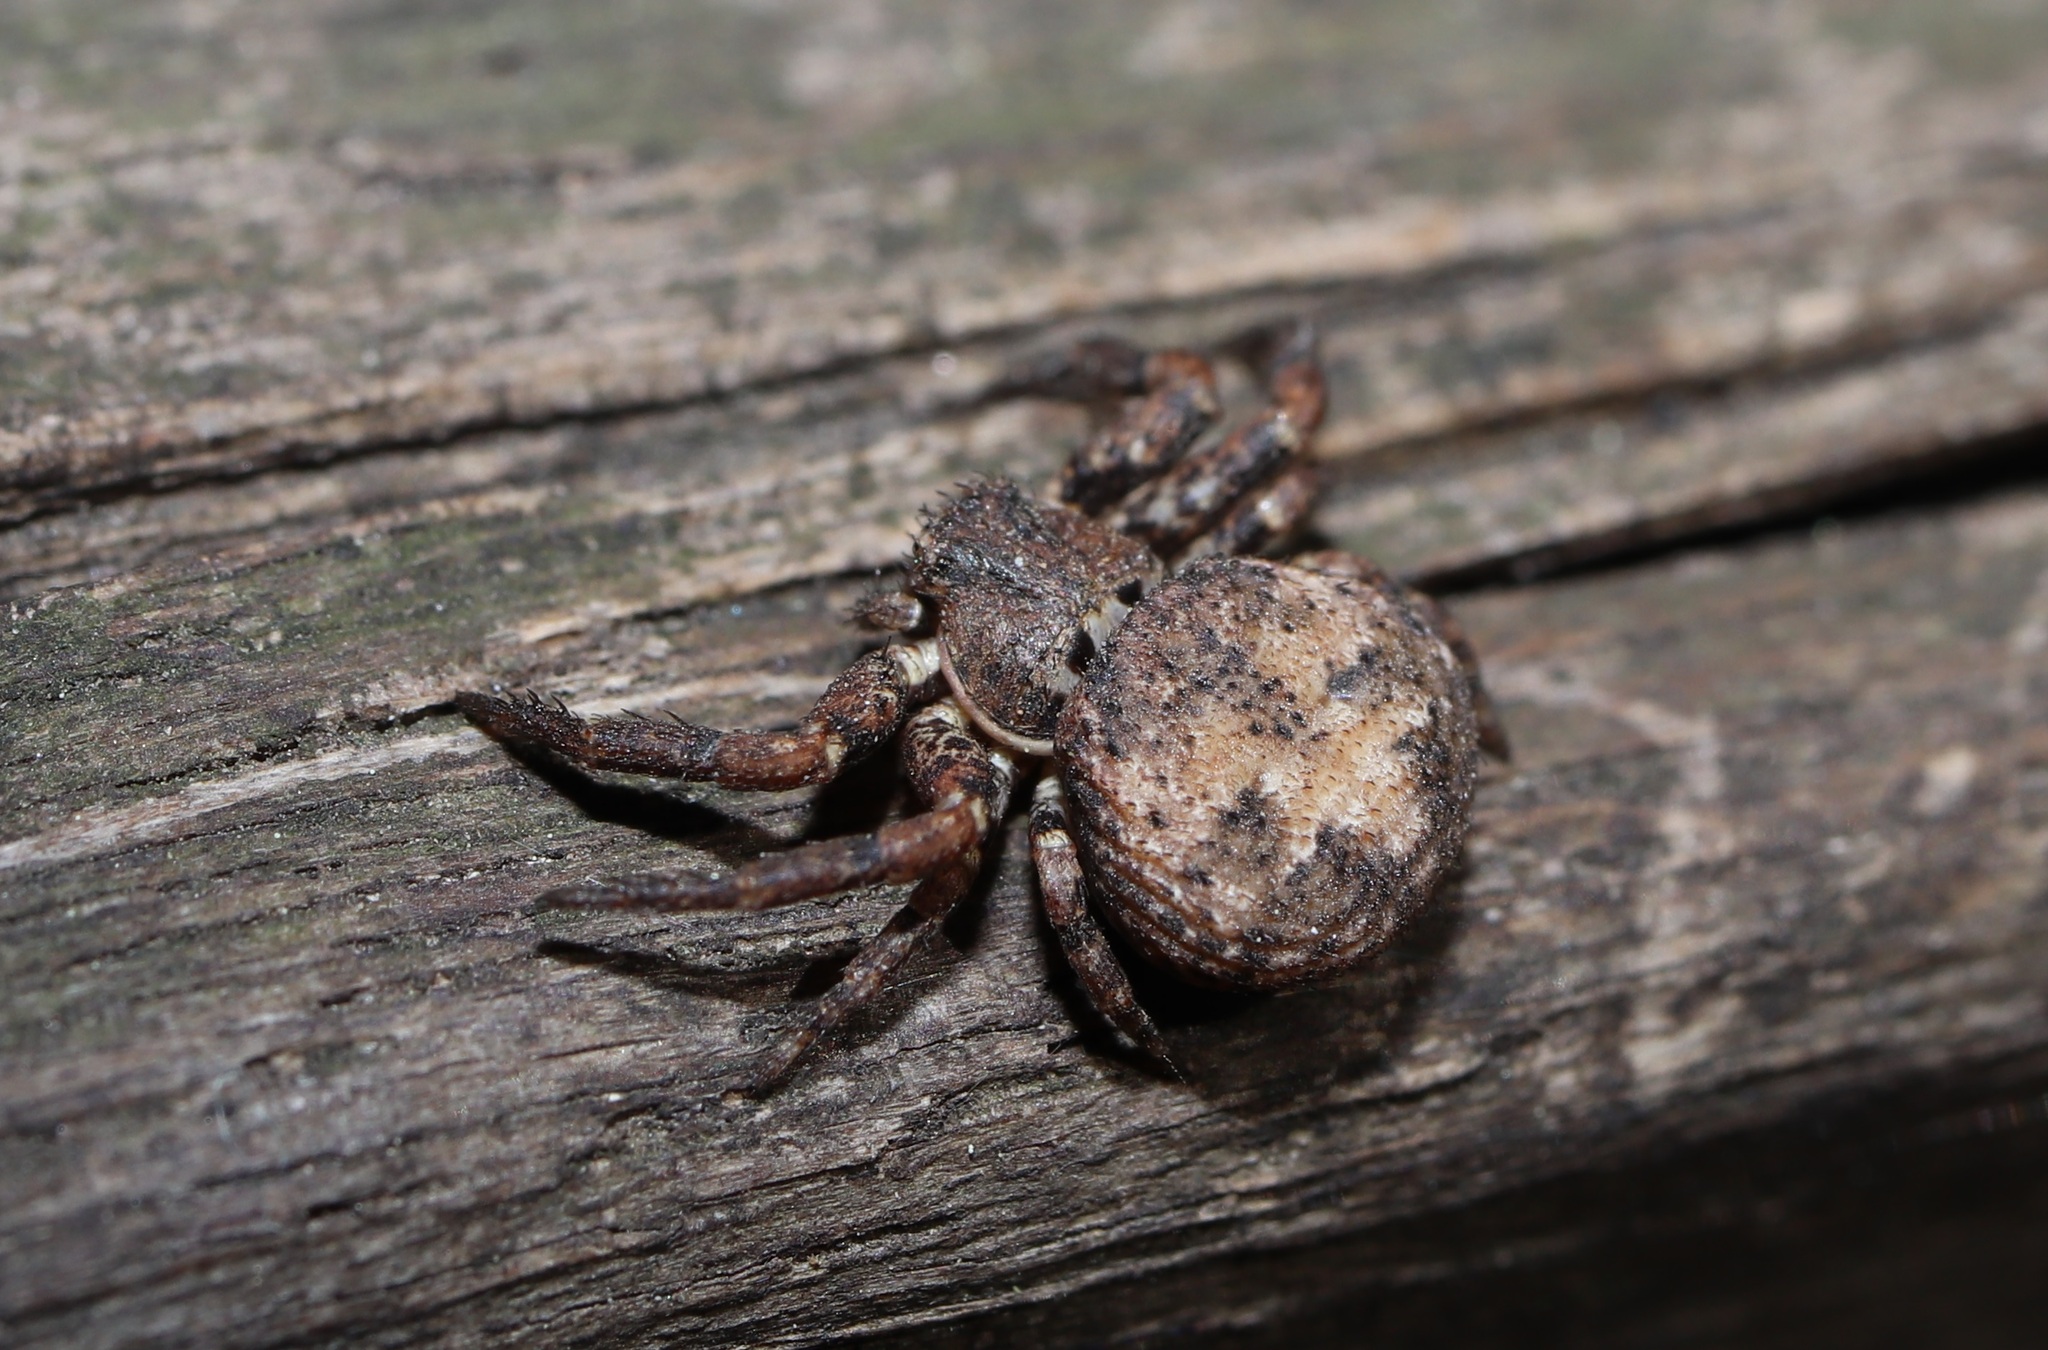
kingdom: Animalia
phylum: Arthropoda
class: Arachnida
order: Araneae
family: Thomisidae
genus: Bassaniana
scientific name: Bassaniana decorata
